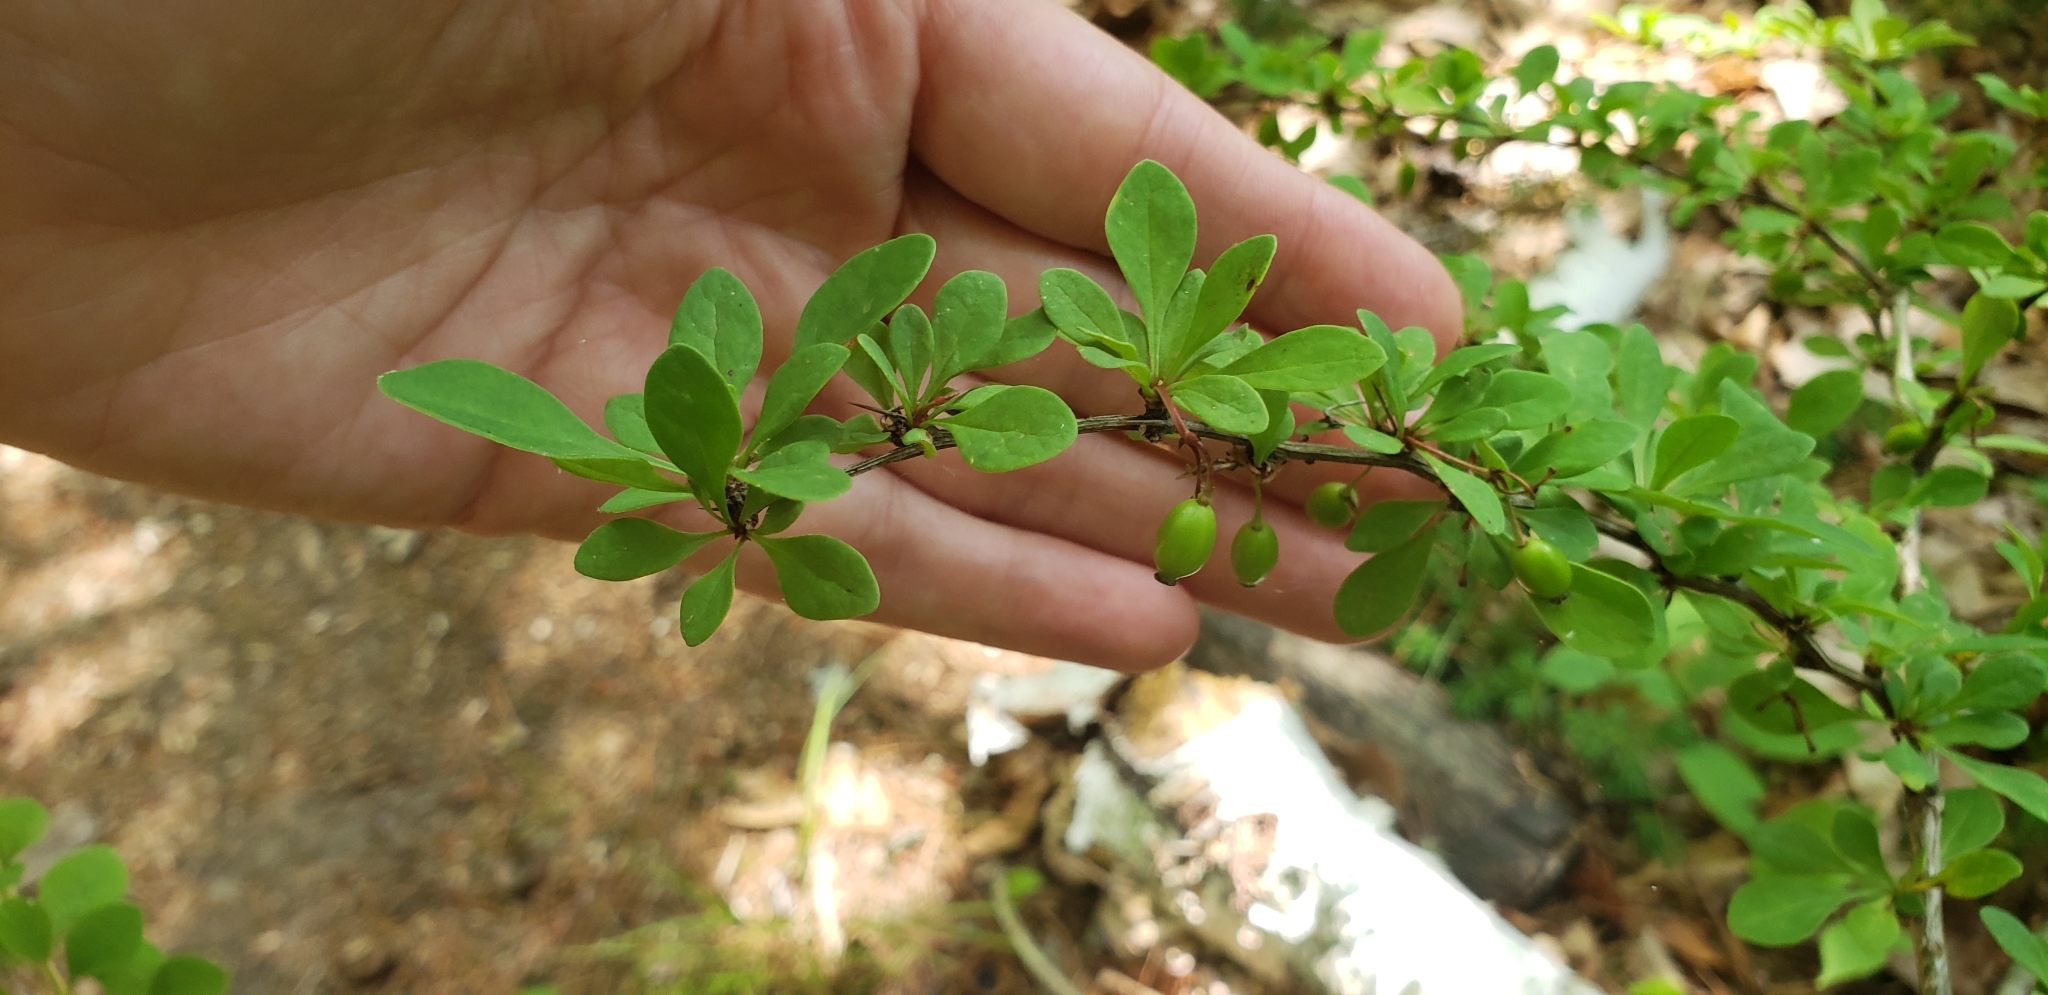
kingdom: Plantae
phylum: Tracheophyta
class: Magnoliopsida
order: Ranunculales
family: Berberidaceae
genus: Berberis
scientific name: Berberis thunbergii
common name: Japanese barberry
